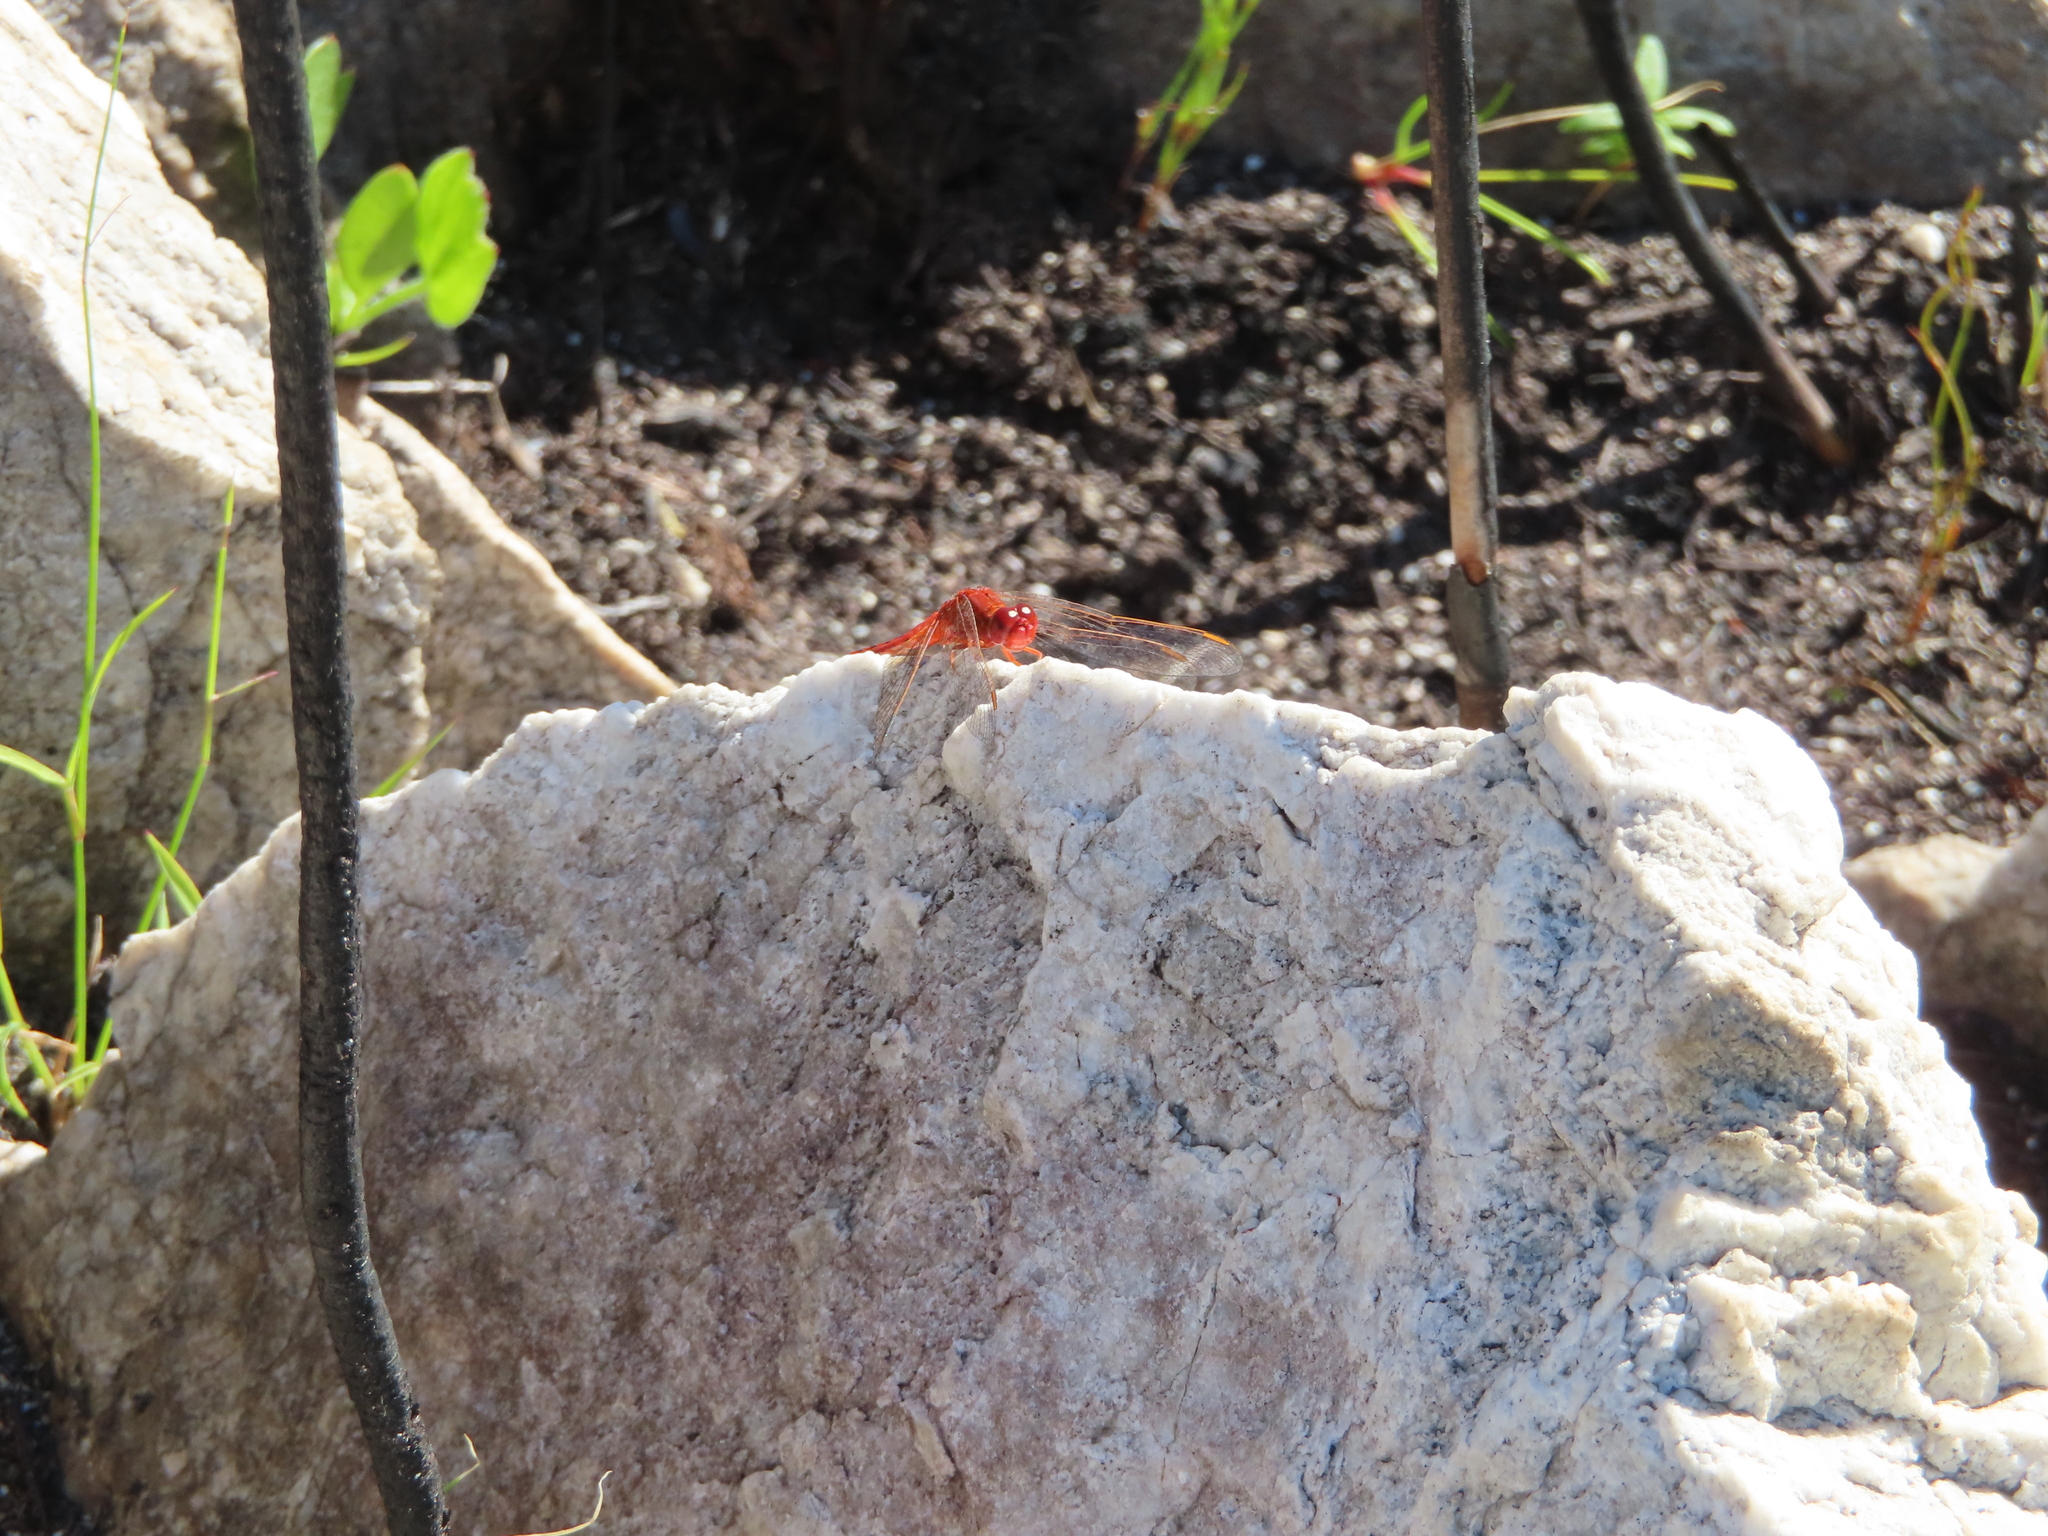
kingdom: Animalia
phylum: Arthropoda
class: Insecta
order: Odonata
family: Libellulidae
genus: Crocothemis
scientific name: Crocothemis sanguinolenta
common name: Little scarlet
